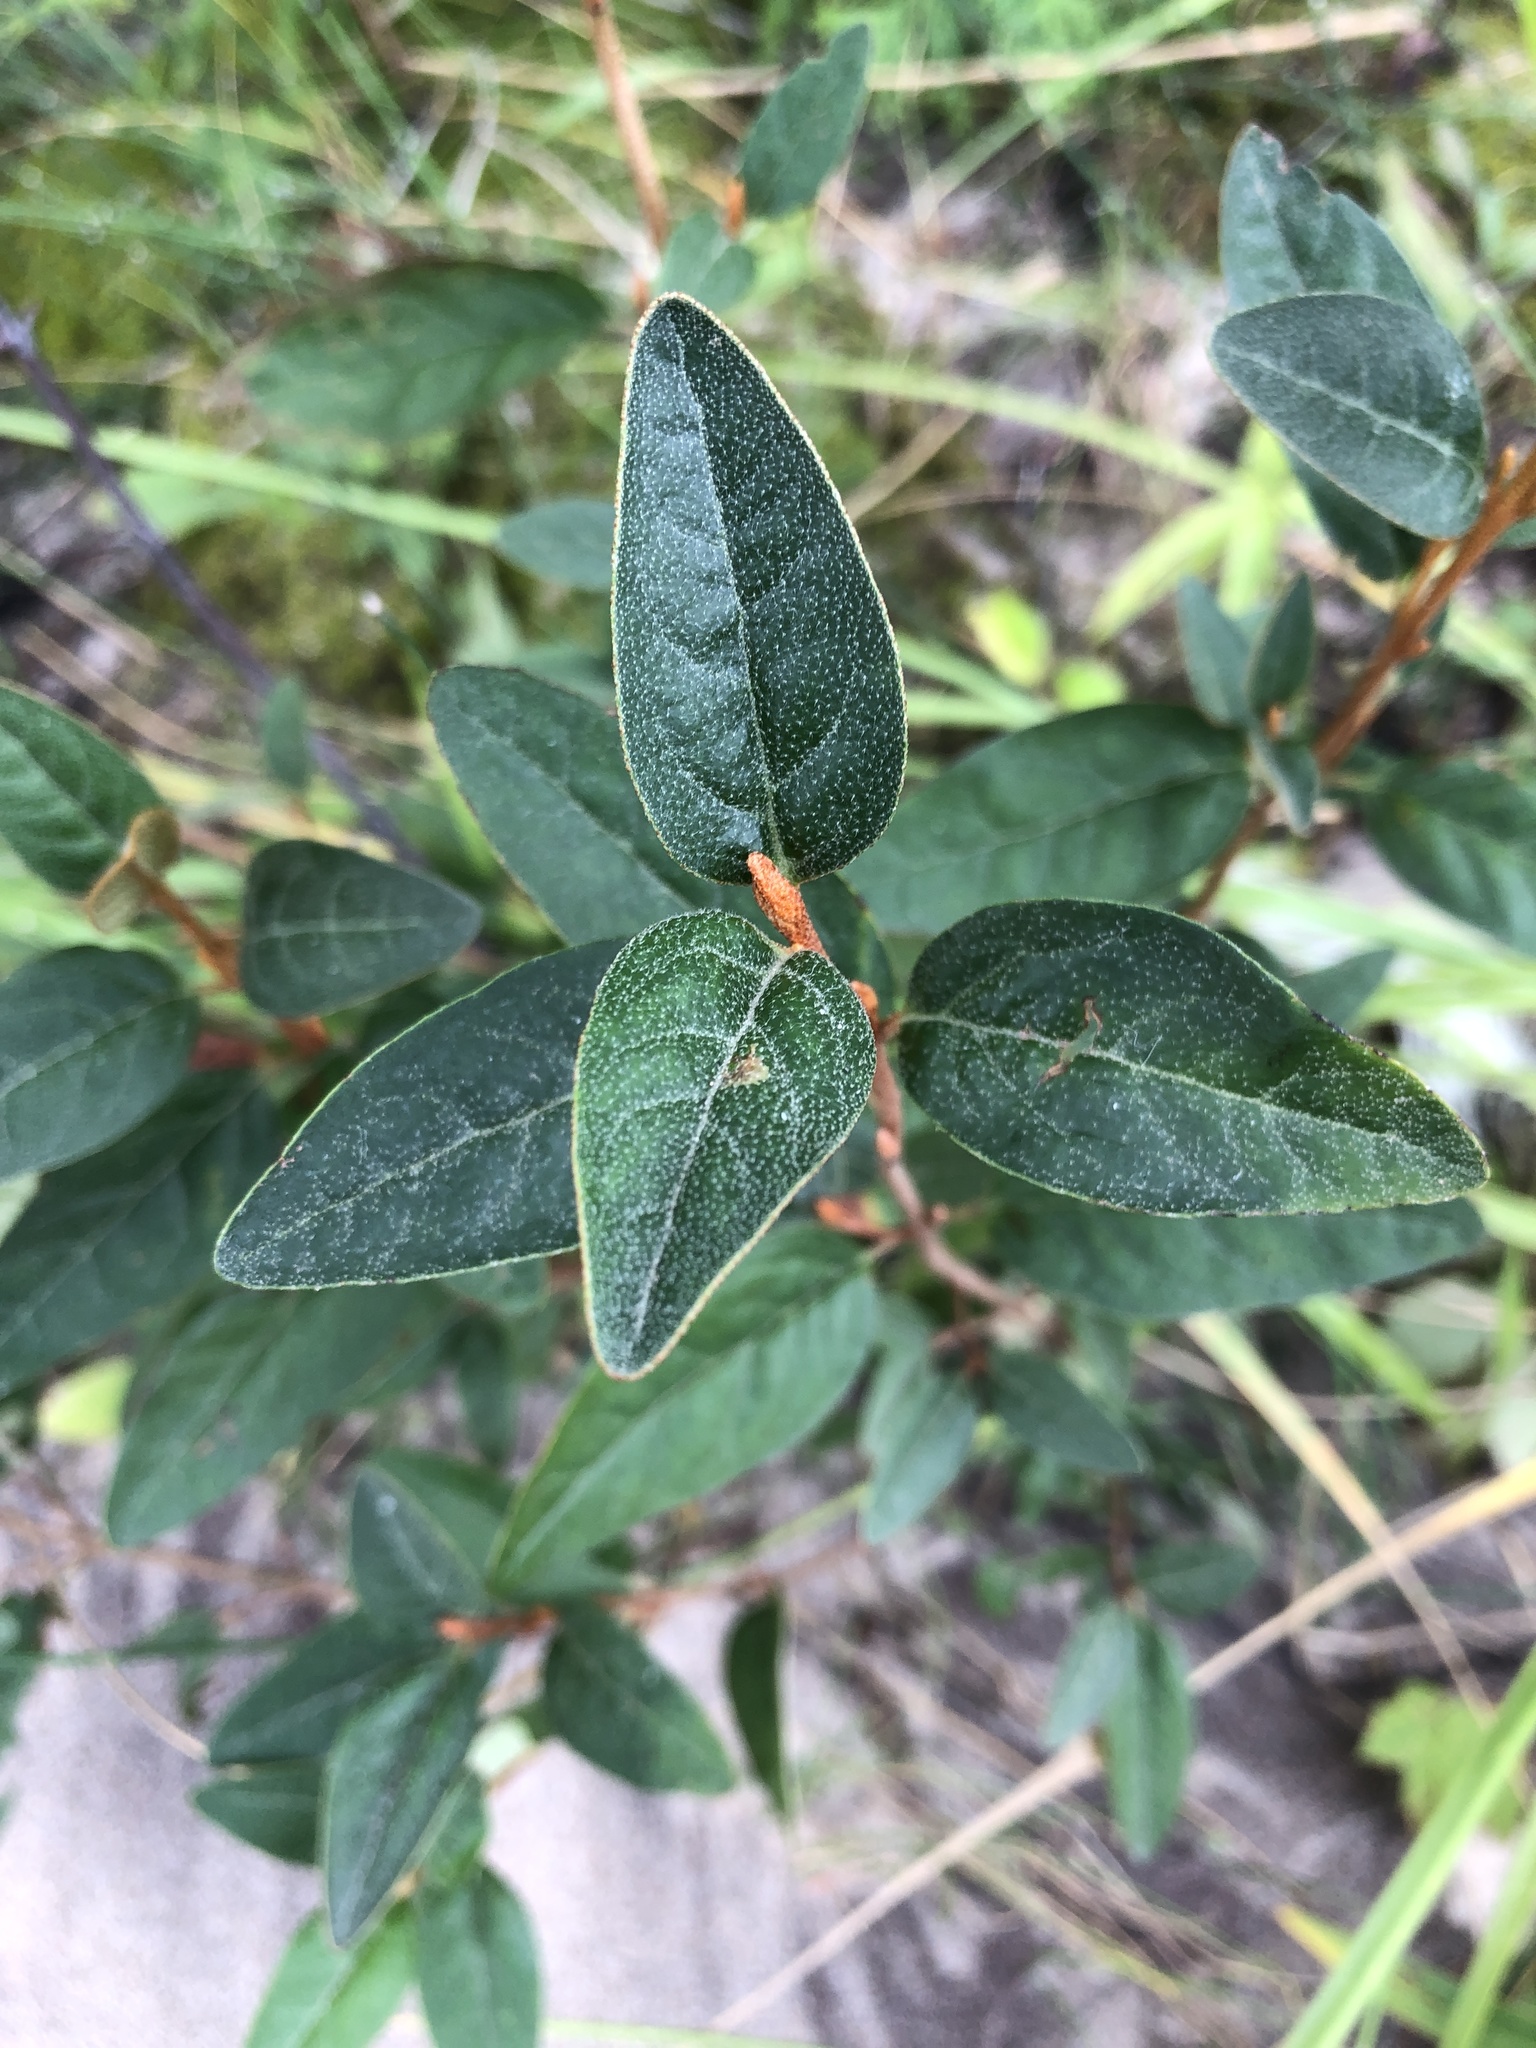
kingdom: Plantae
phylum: Tracheophyta
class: Magnoliopsida
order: Rosales
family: Elaeagnaceae
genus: Shepherdia
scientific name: Shepherdia canadensis
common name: Soapberry
